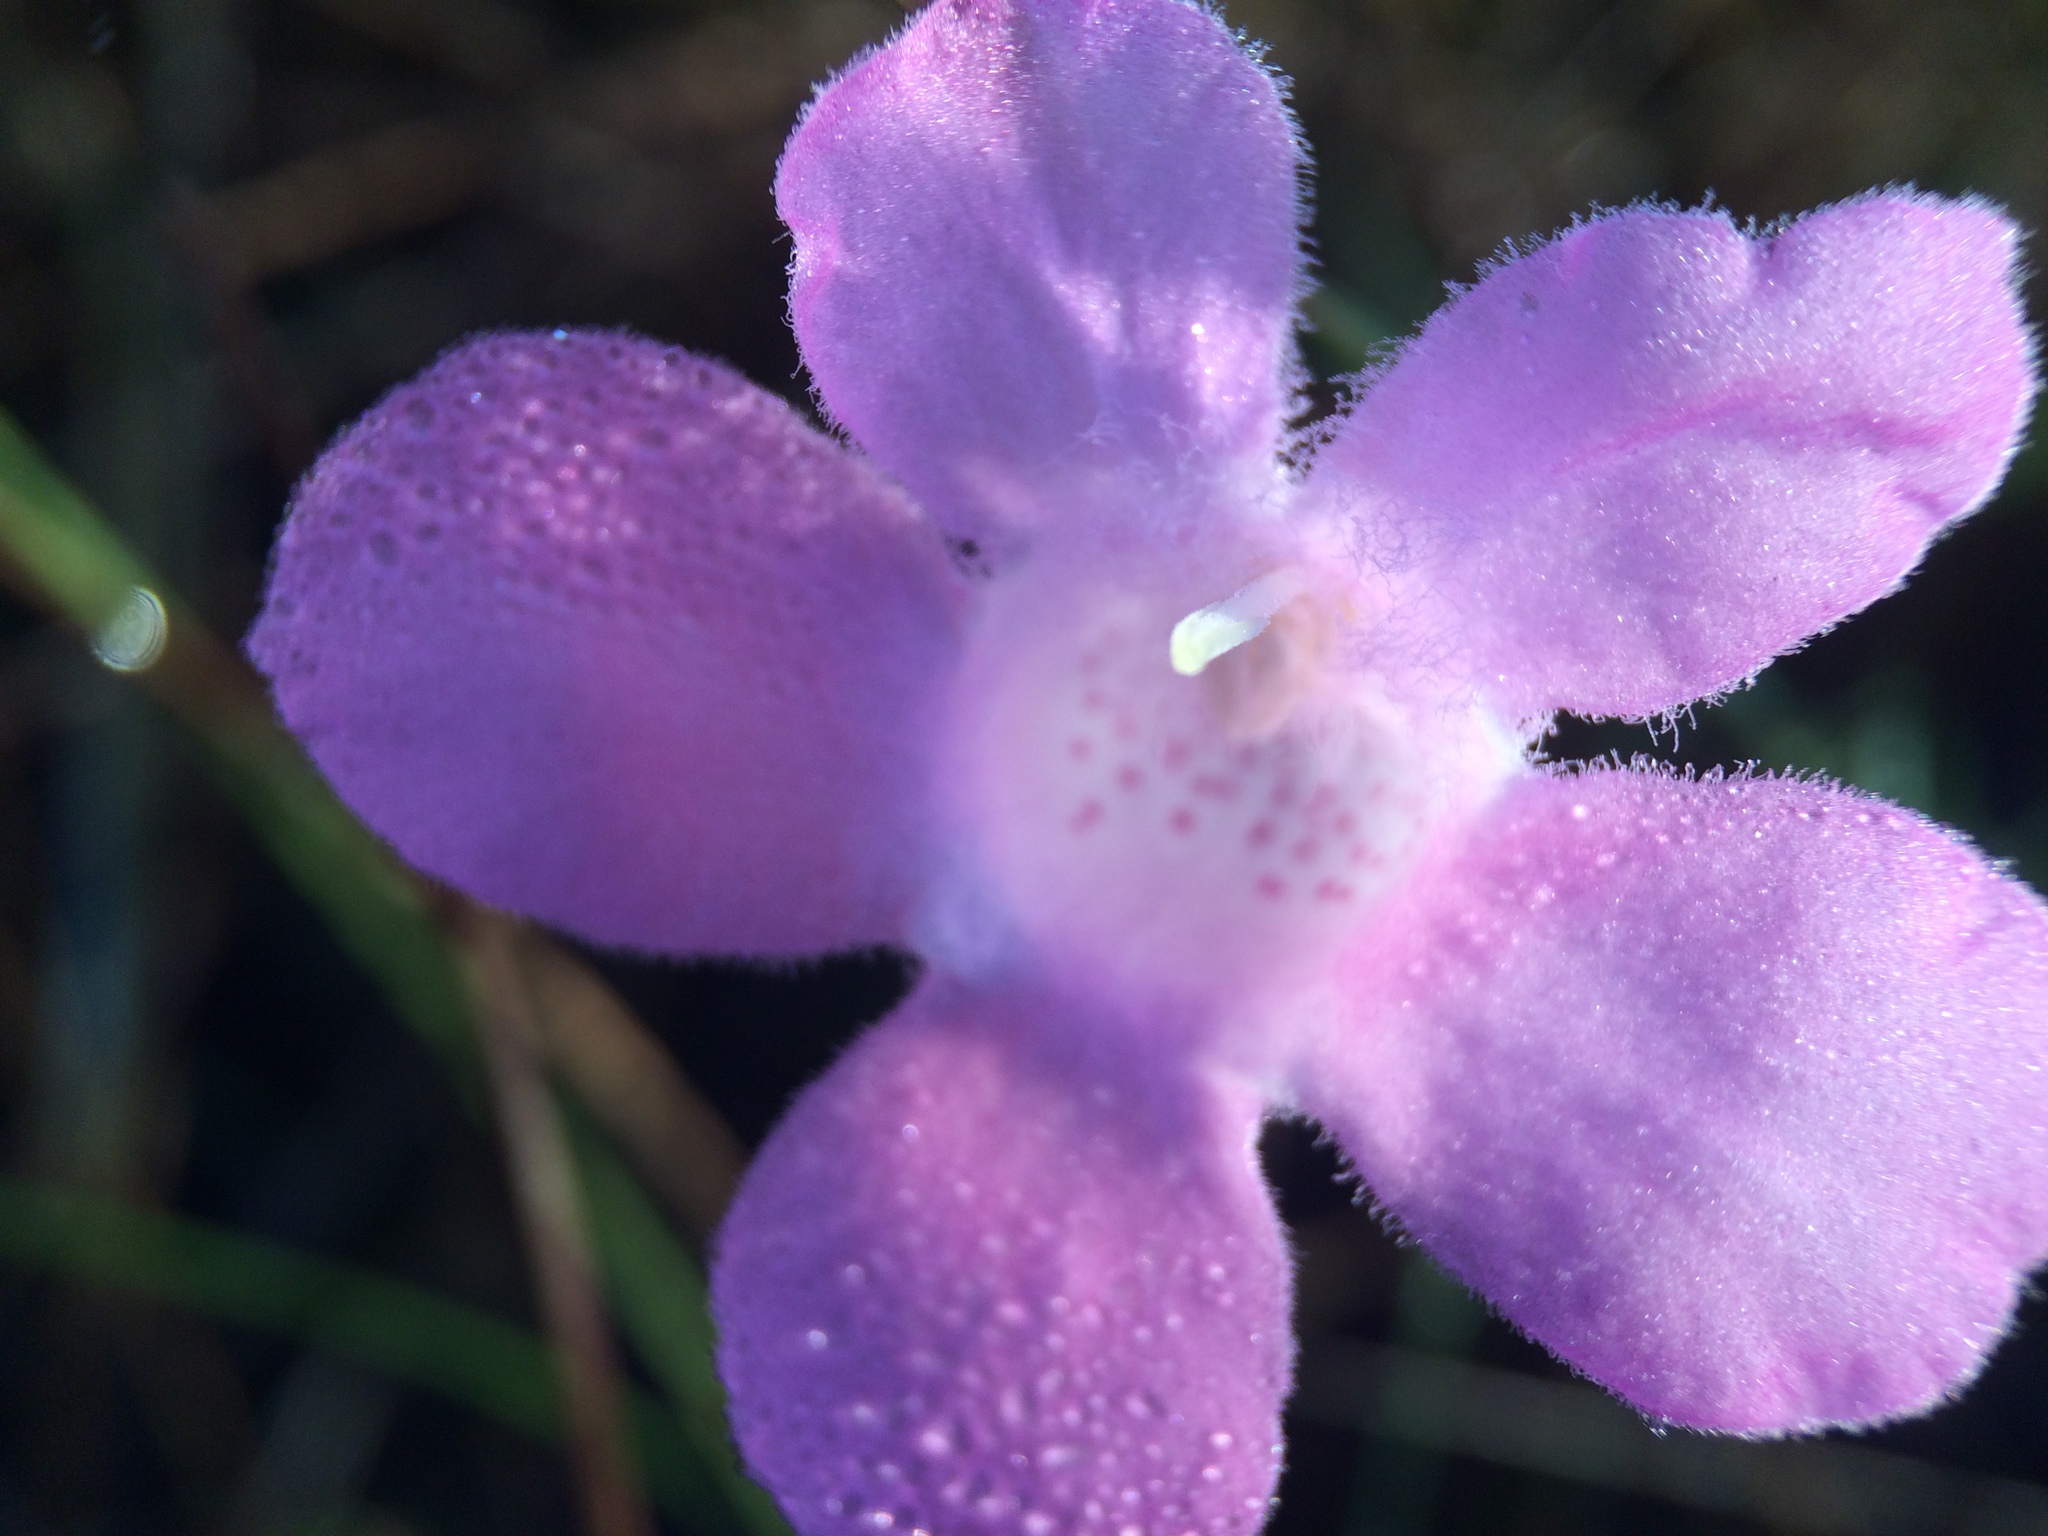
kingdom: Plantae
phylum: Tracheophyta
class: Magnoliopsida
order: Lamiales
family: Orobanchaceae
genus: Agalinis
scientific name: Agalinis linifolia
